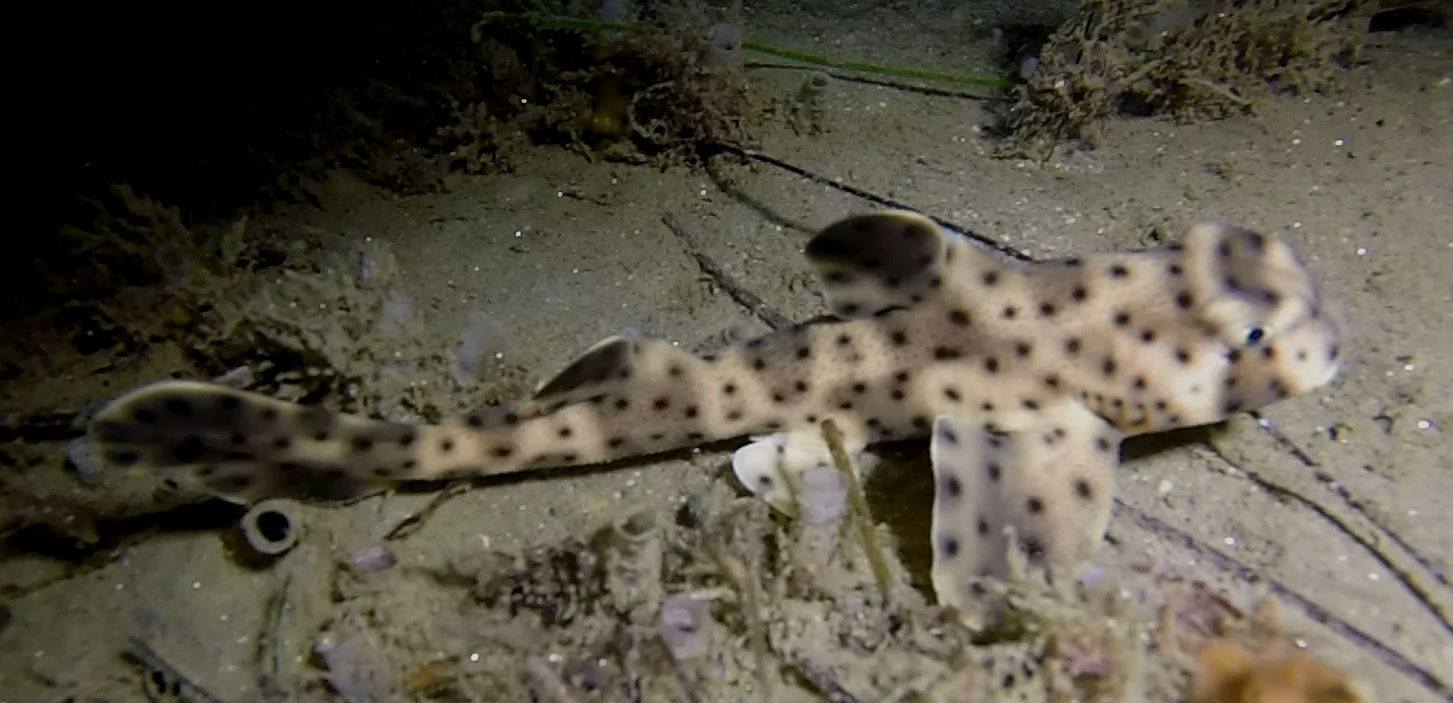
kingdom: Animalia
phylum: Chordata
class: Elasmobranchii
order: Heterodontiformes
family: Heterodontidae
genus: Heterodontus
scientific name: Heterodontus francisci
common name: Horn shark
